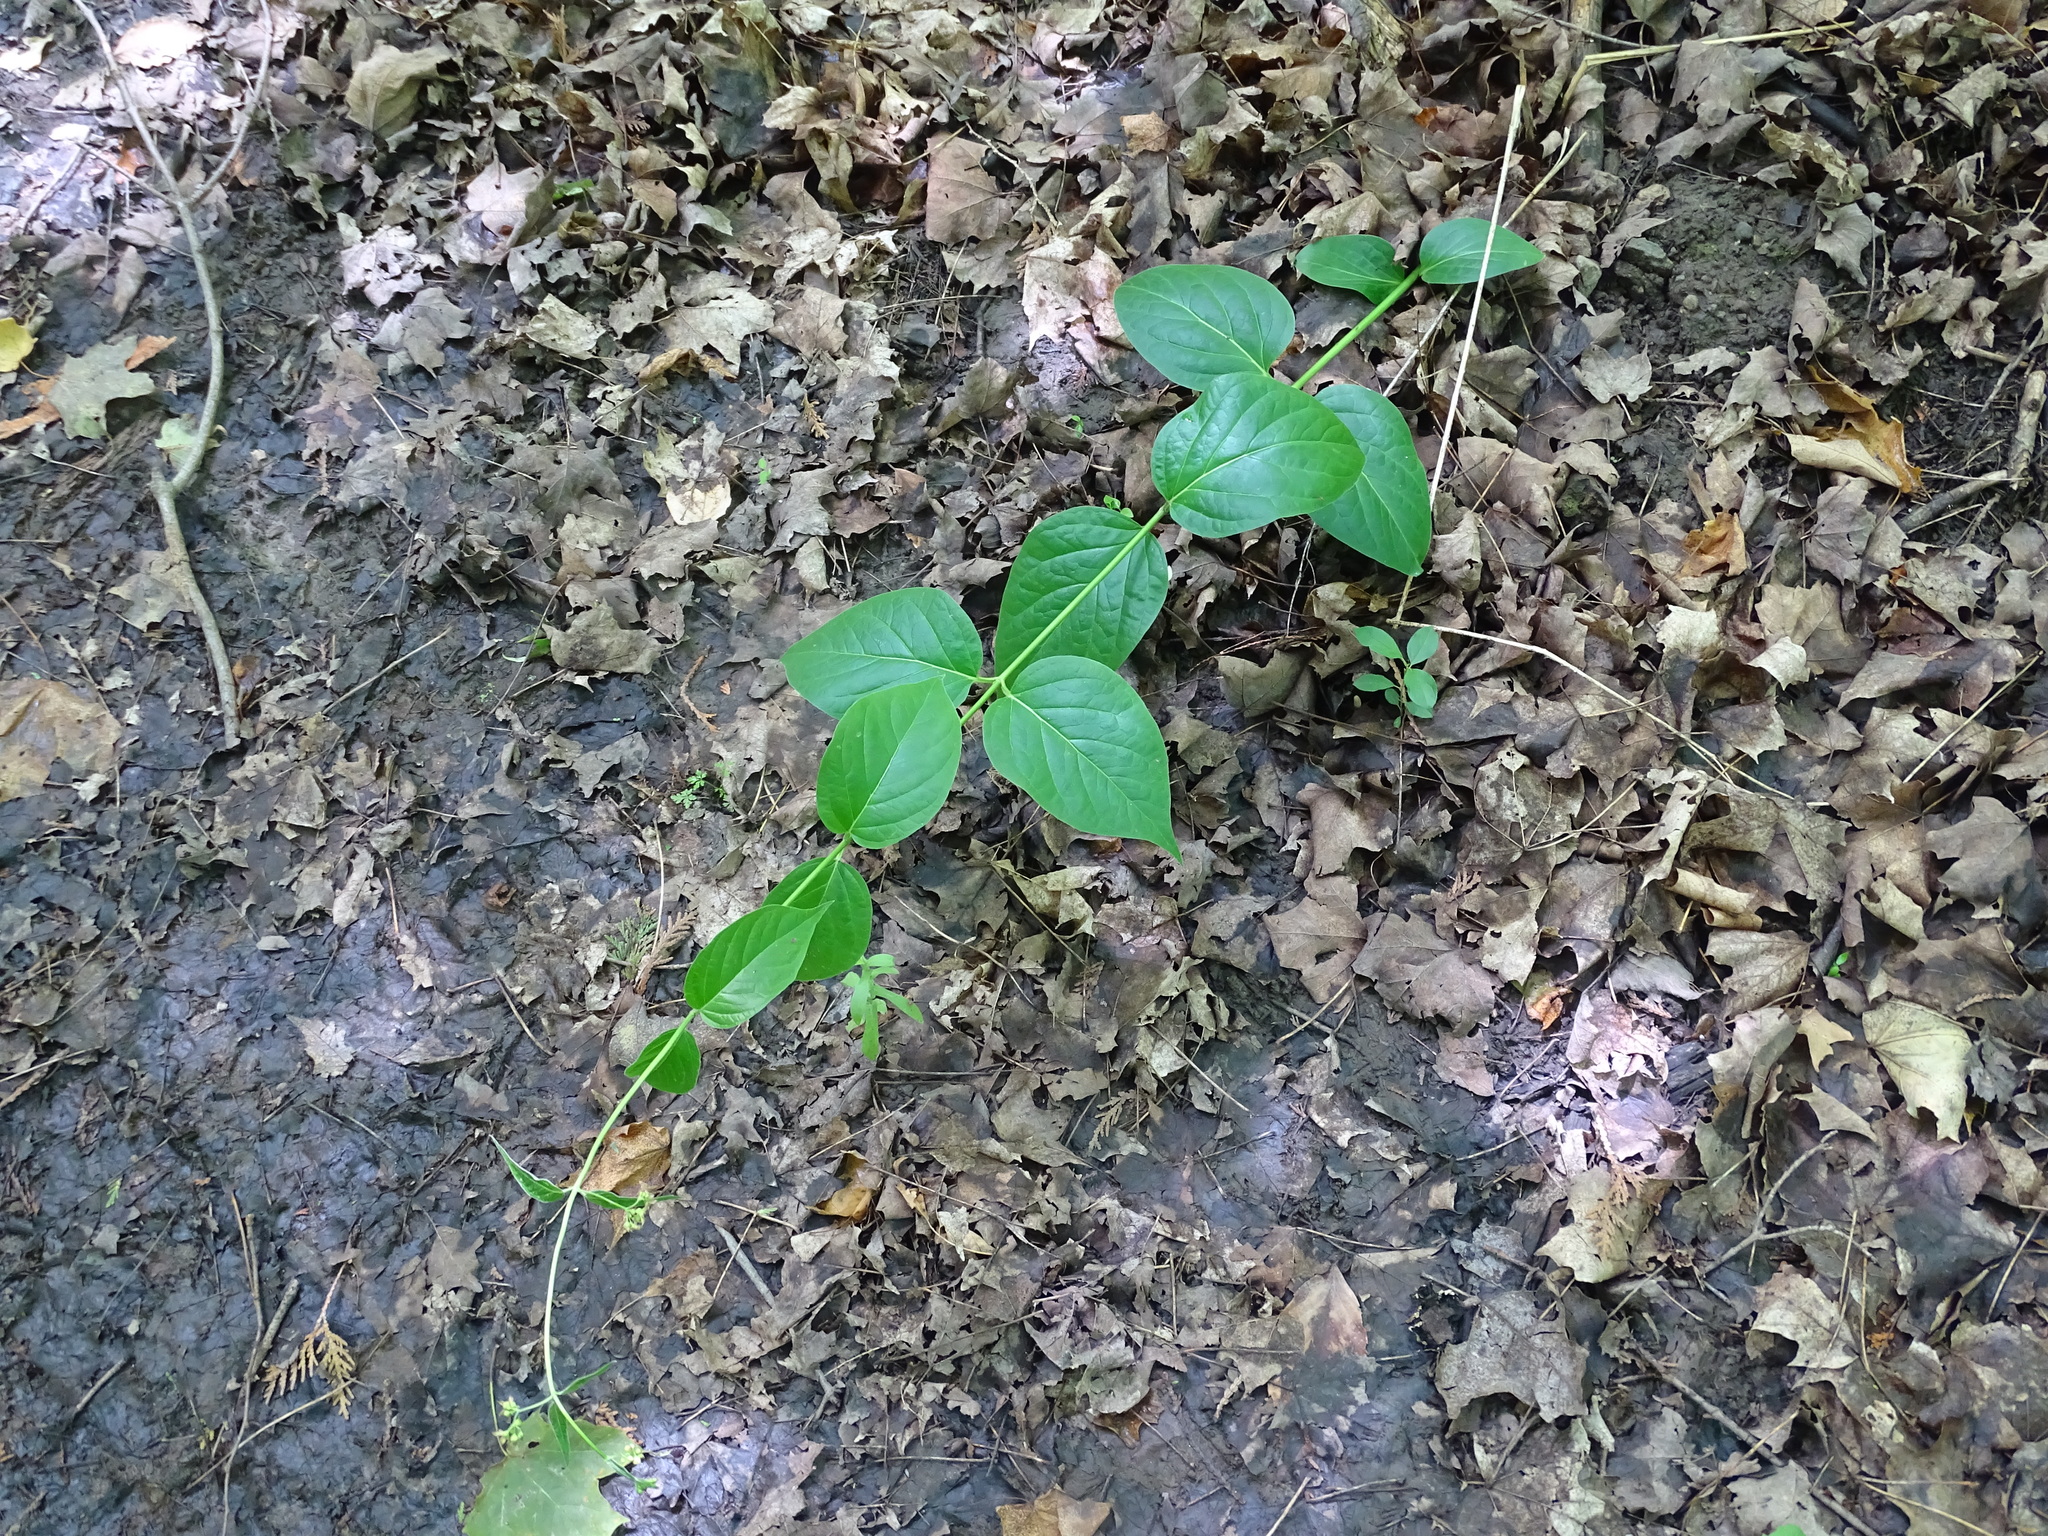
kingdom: Plantae
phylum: Tracheophyta
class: Magnoliopsida
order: Gentianales
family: Apocynaceae
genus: Vincetoxicum
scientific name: Vincetoxicum rossicum
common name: Dog-strangling vine
